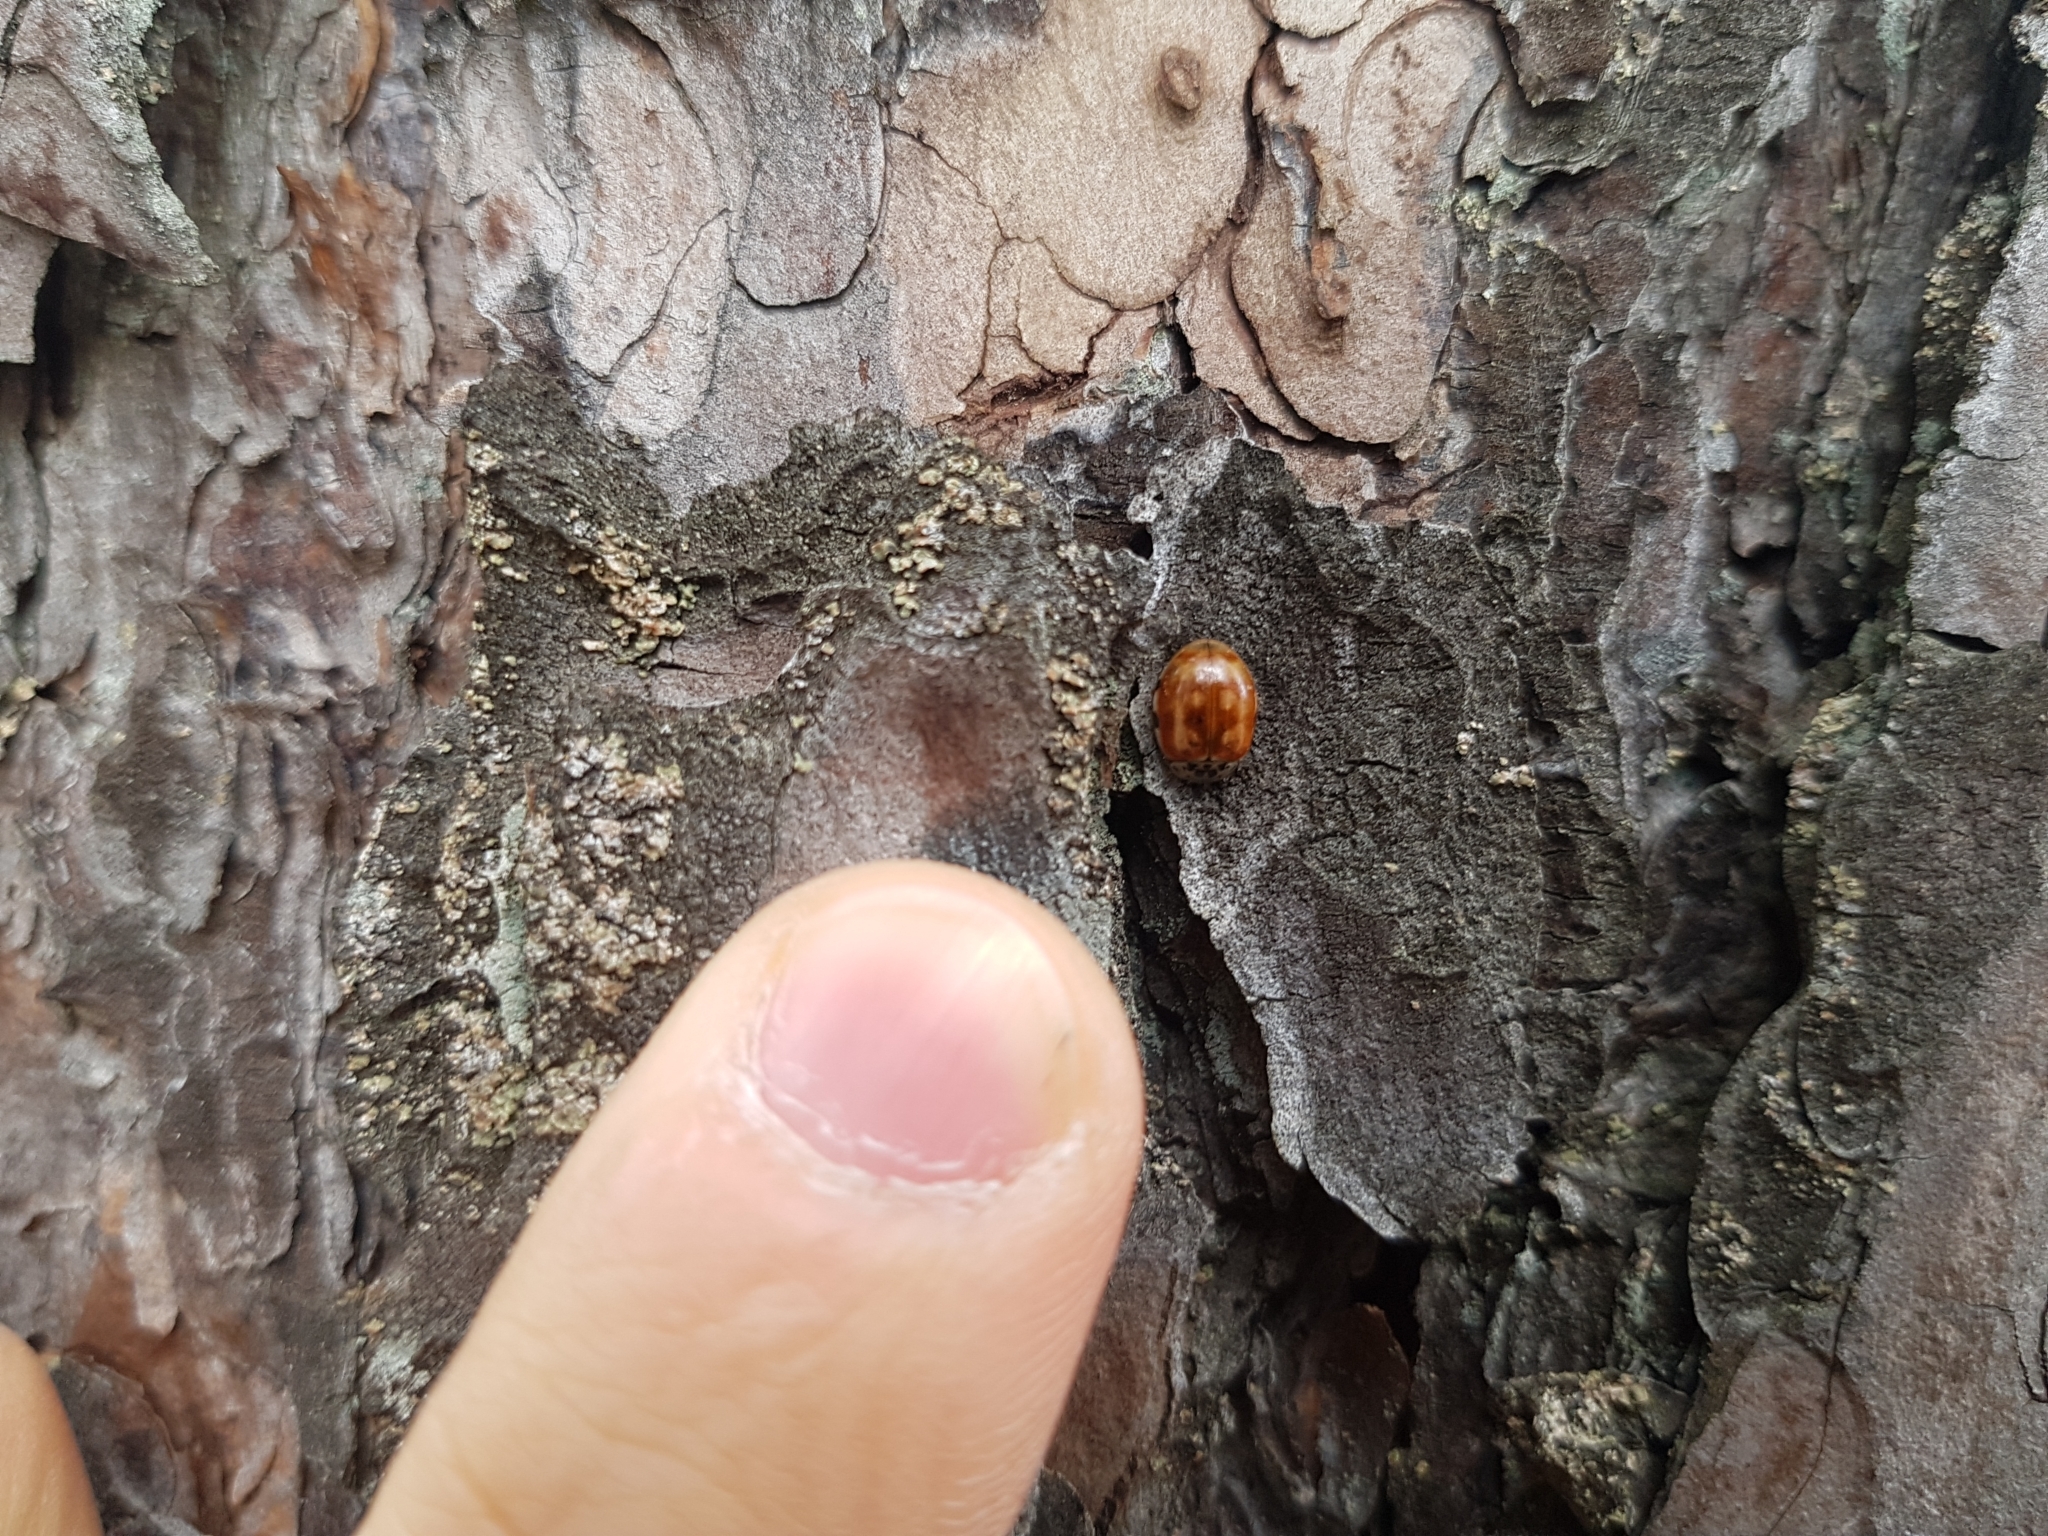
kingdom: Animalia
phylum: Arthropoda
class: Insecta
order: Coleoptera
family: Coccinellidae
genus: Harmonia
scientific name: Harmonia quadripunctata
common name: Cream-streaked ladybird
